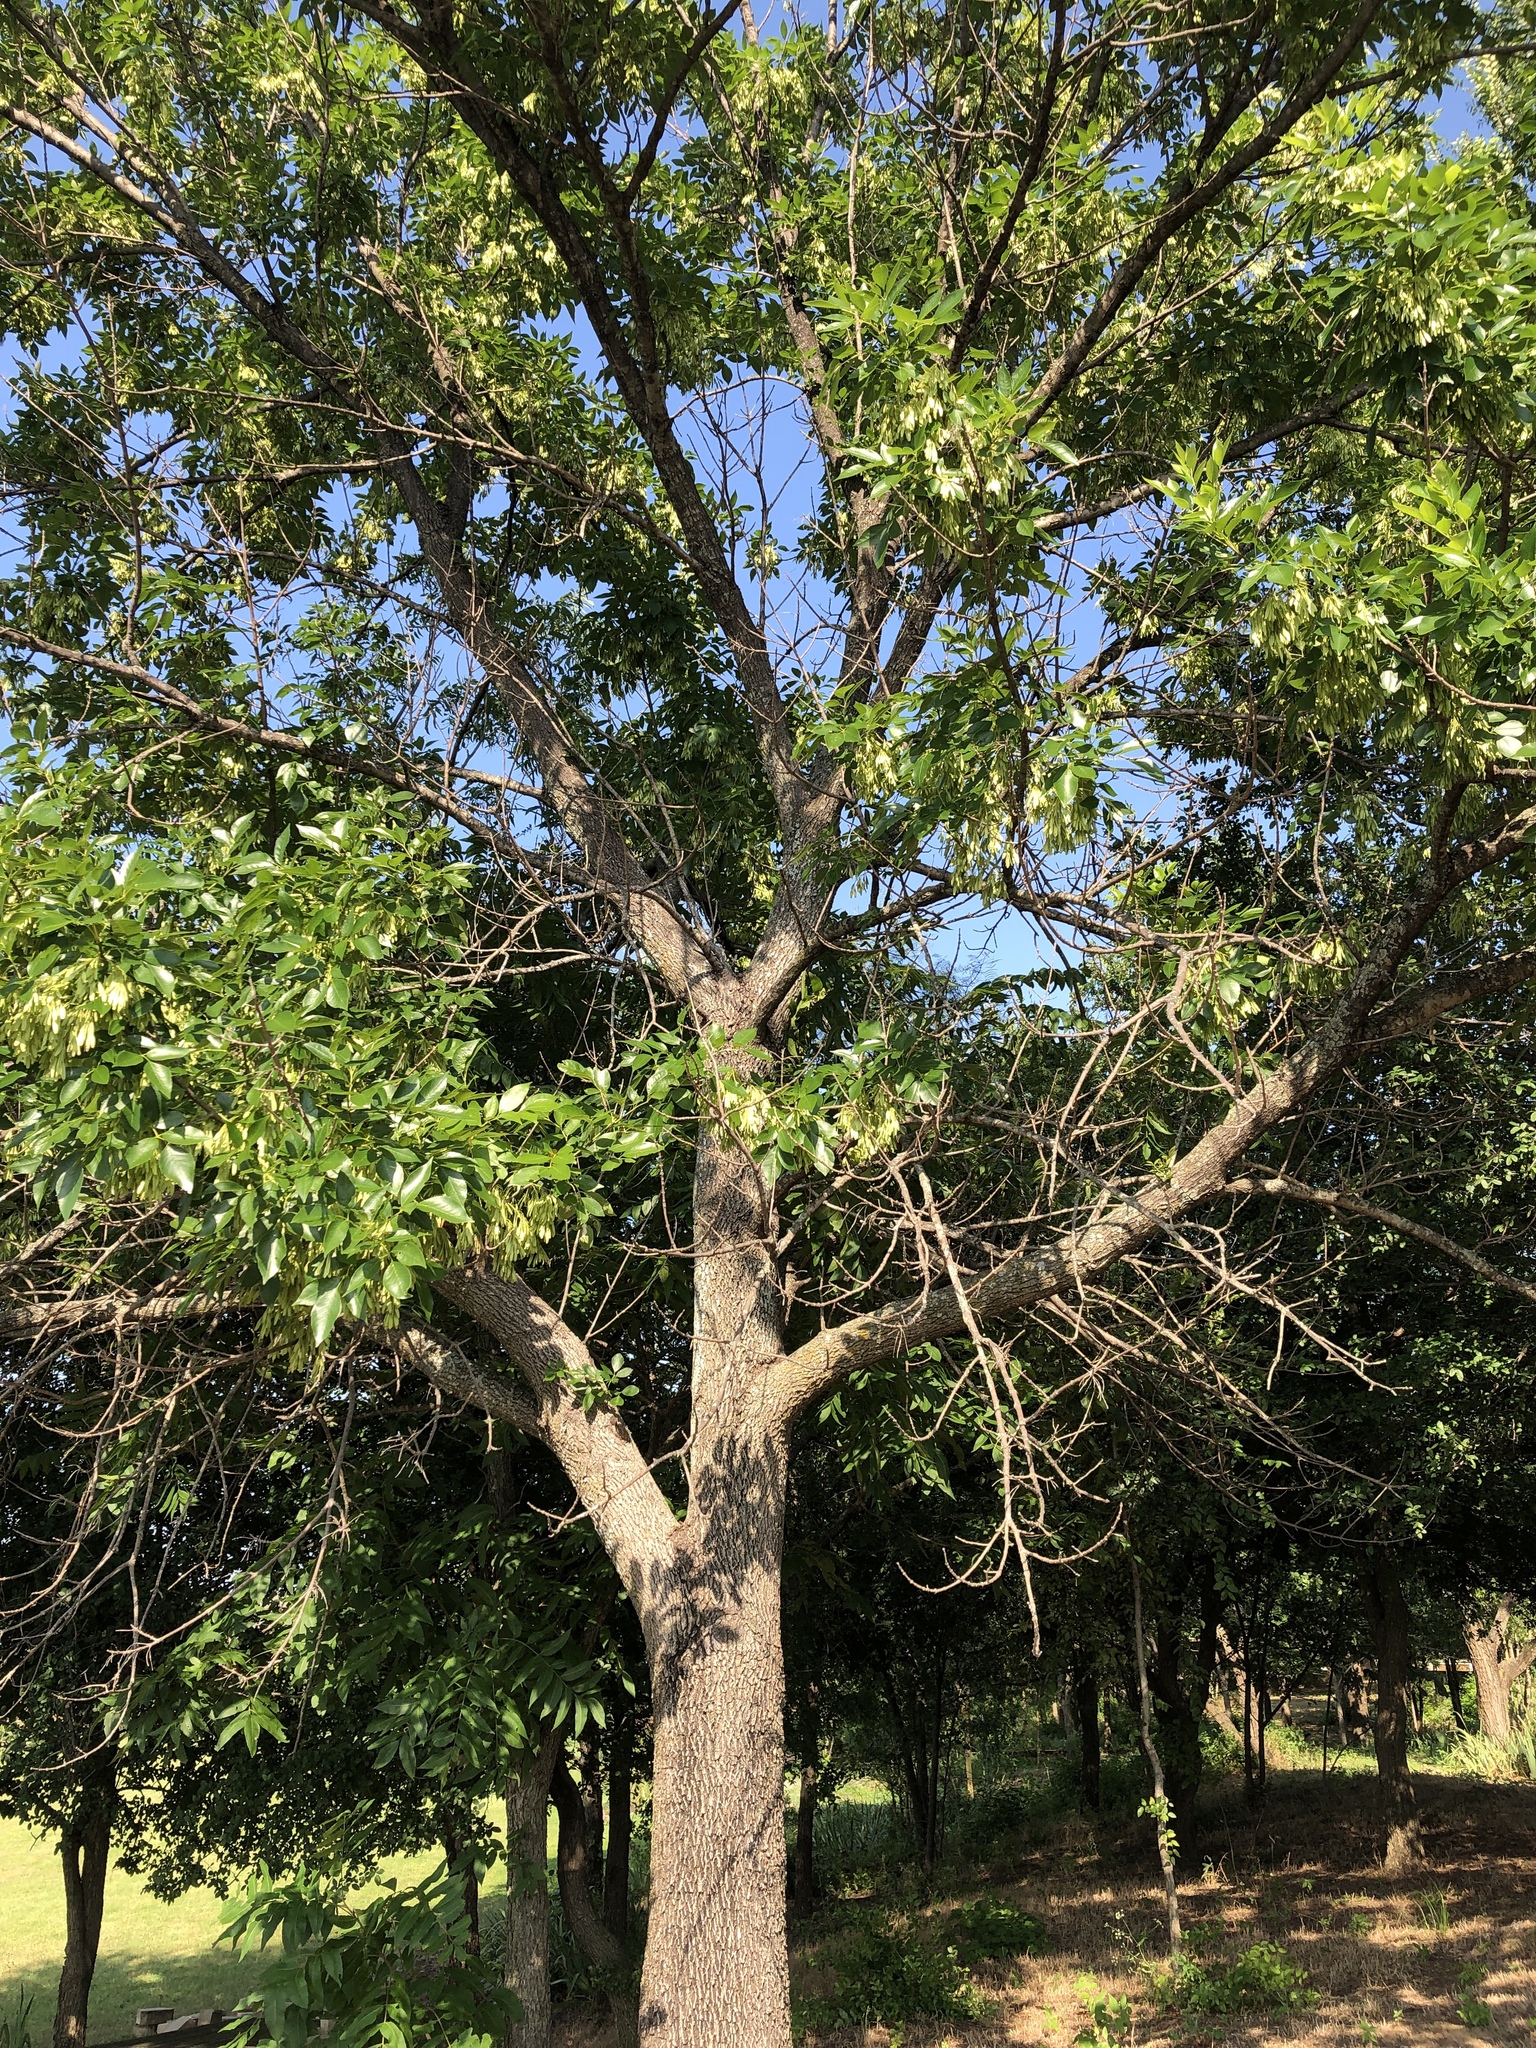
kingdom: Plantae
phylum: Tracheophyta
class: Magnoliopsida
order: Lamiales
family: Oleaceae
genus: Fraxinus
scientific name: Fraxinus pennsylvanica
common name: Green ash
